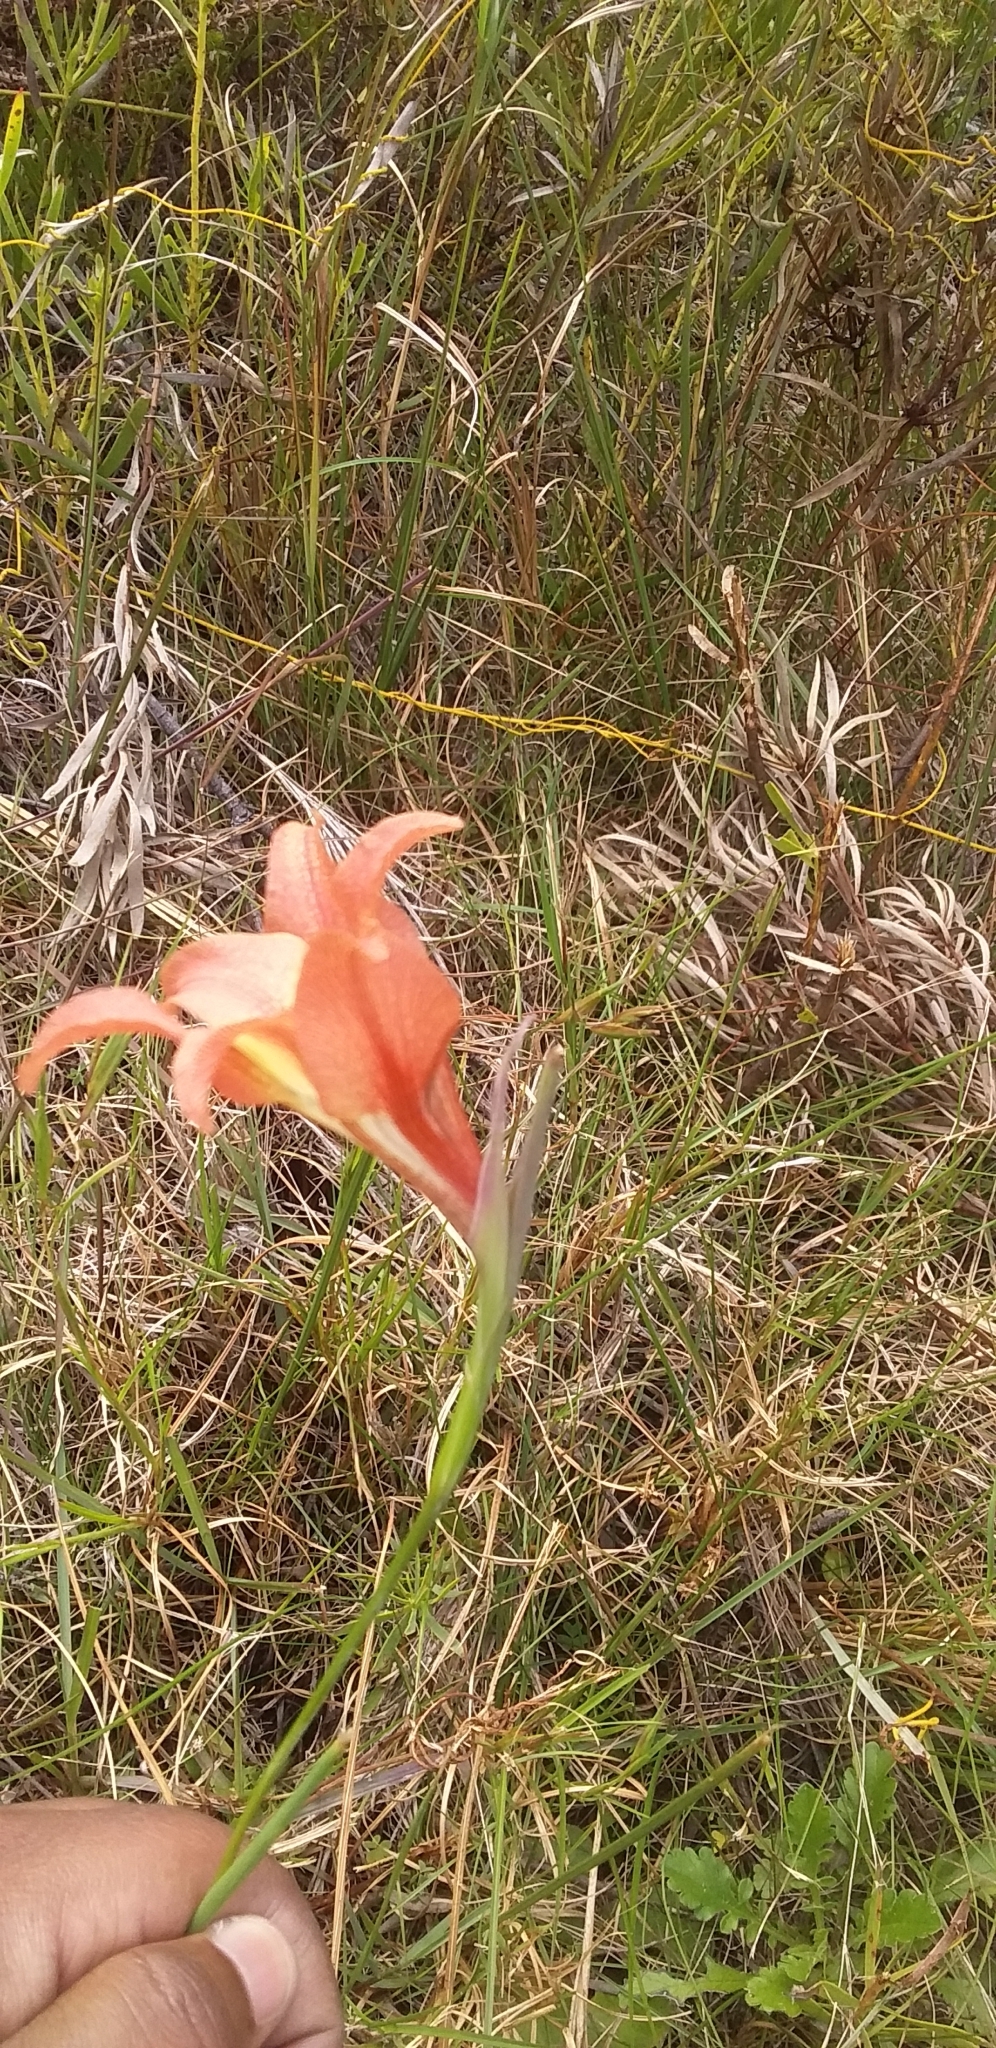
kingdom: Plantae
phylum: Tracheophyta
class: Liliopsida
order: Asparagales
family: Iridaceae
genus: Gladiolus
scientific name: Gladiolus liliaceus
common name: Large brown afrikaner
